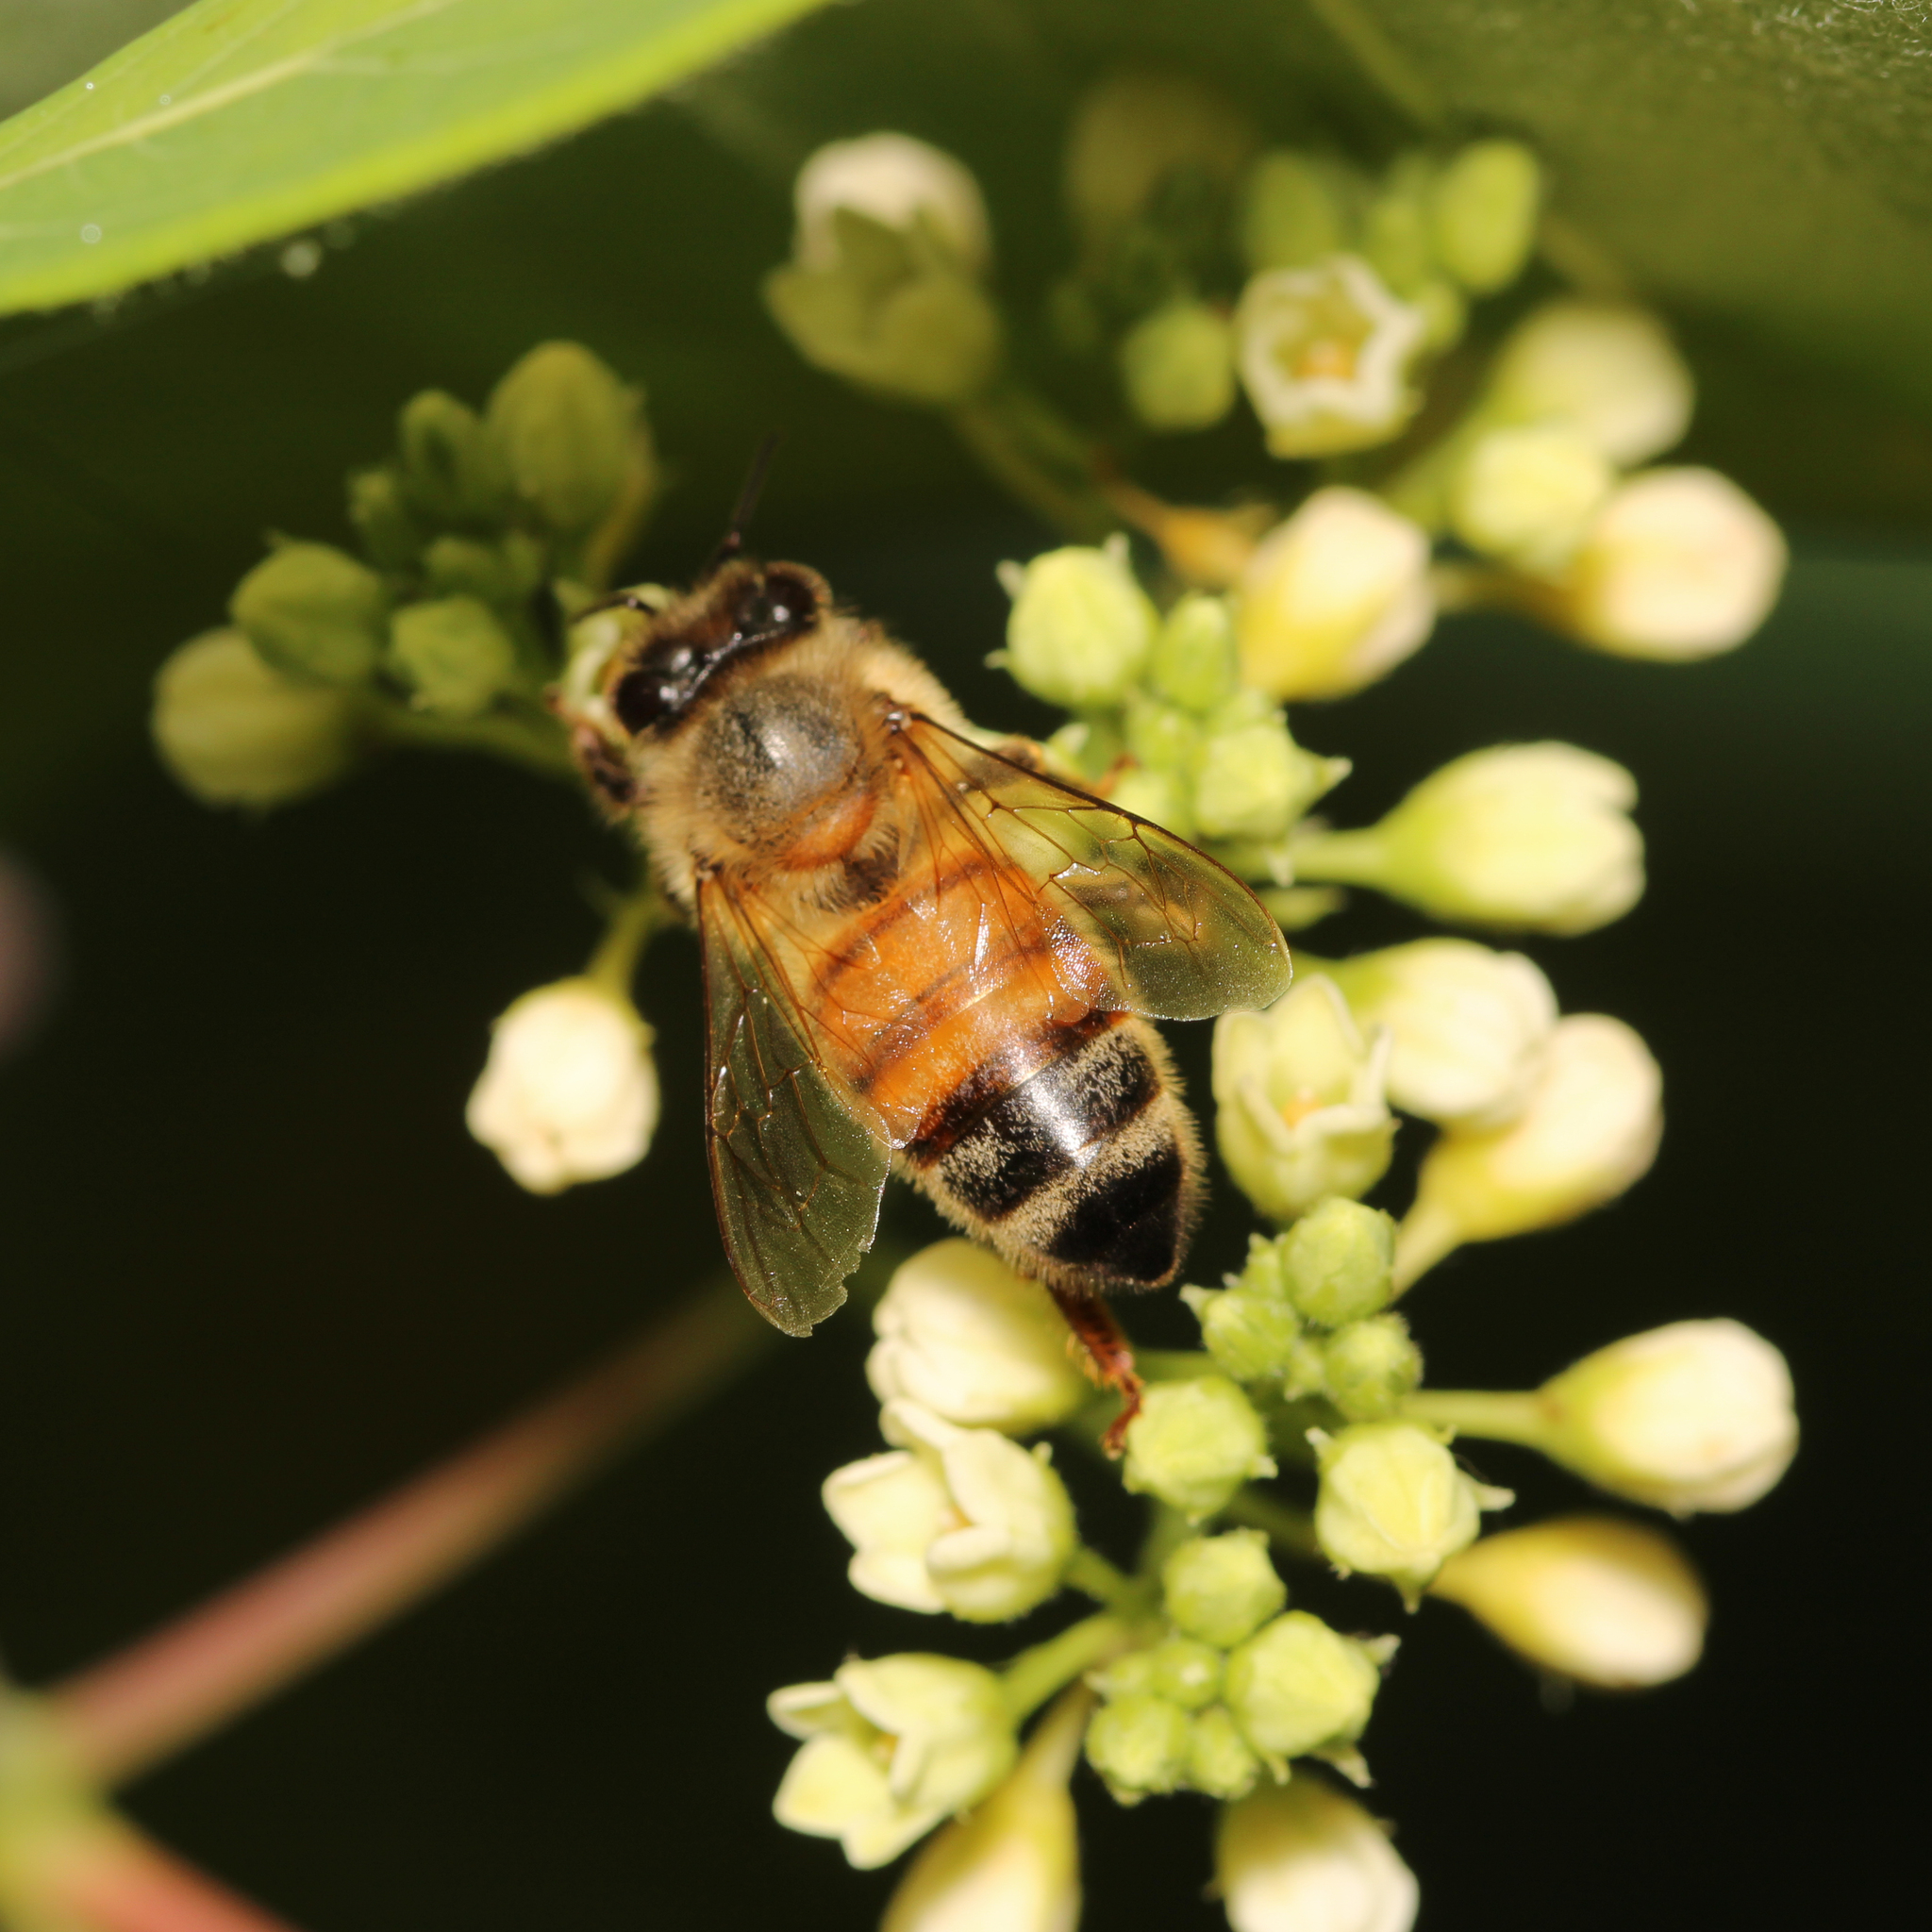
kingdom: Animalia
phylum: Arthropoda
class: Insecta
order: Hymenoptera
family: Apidae
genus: Apis
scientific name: Apis mellifera
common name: Honey bee
